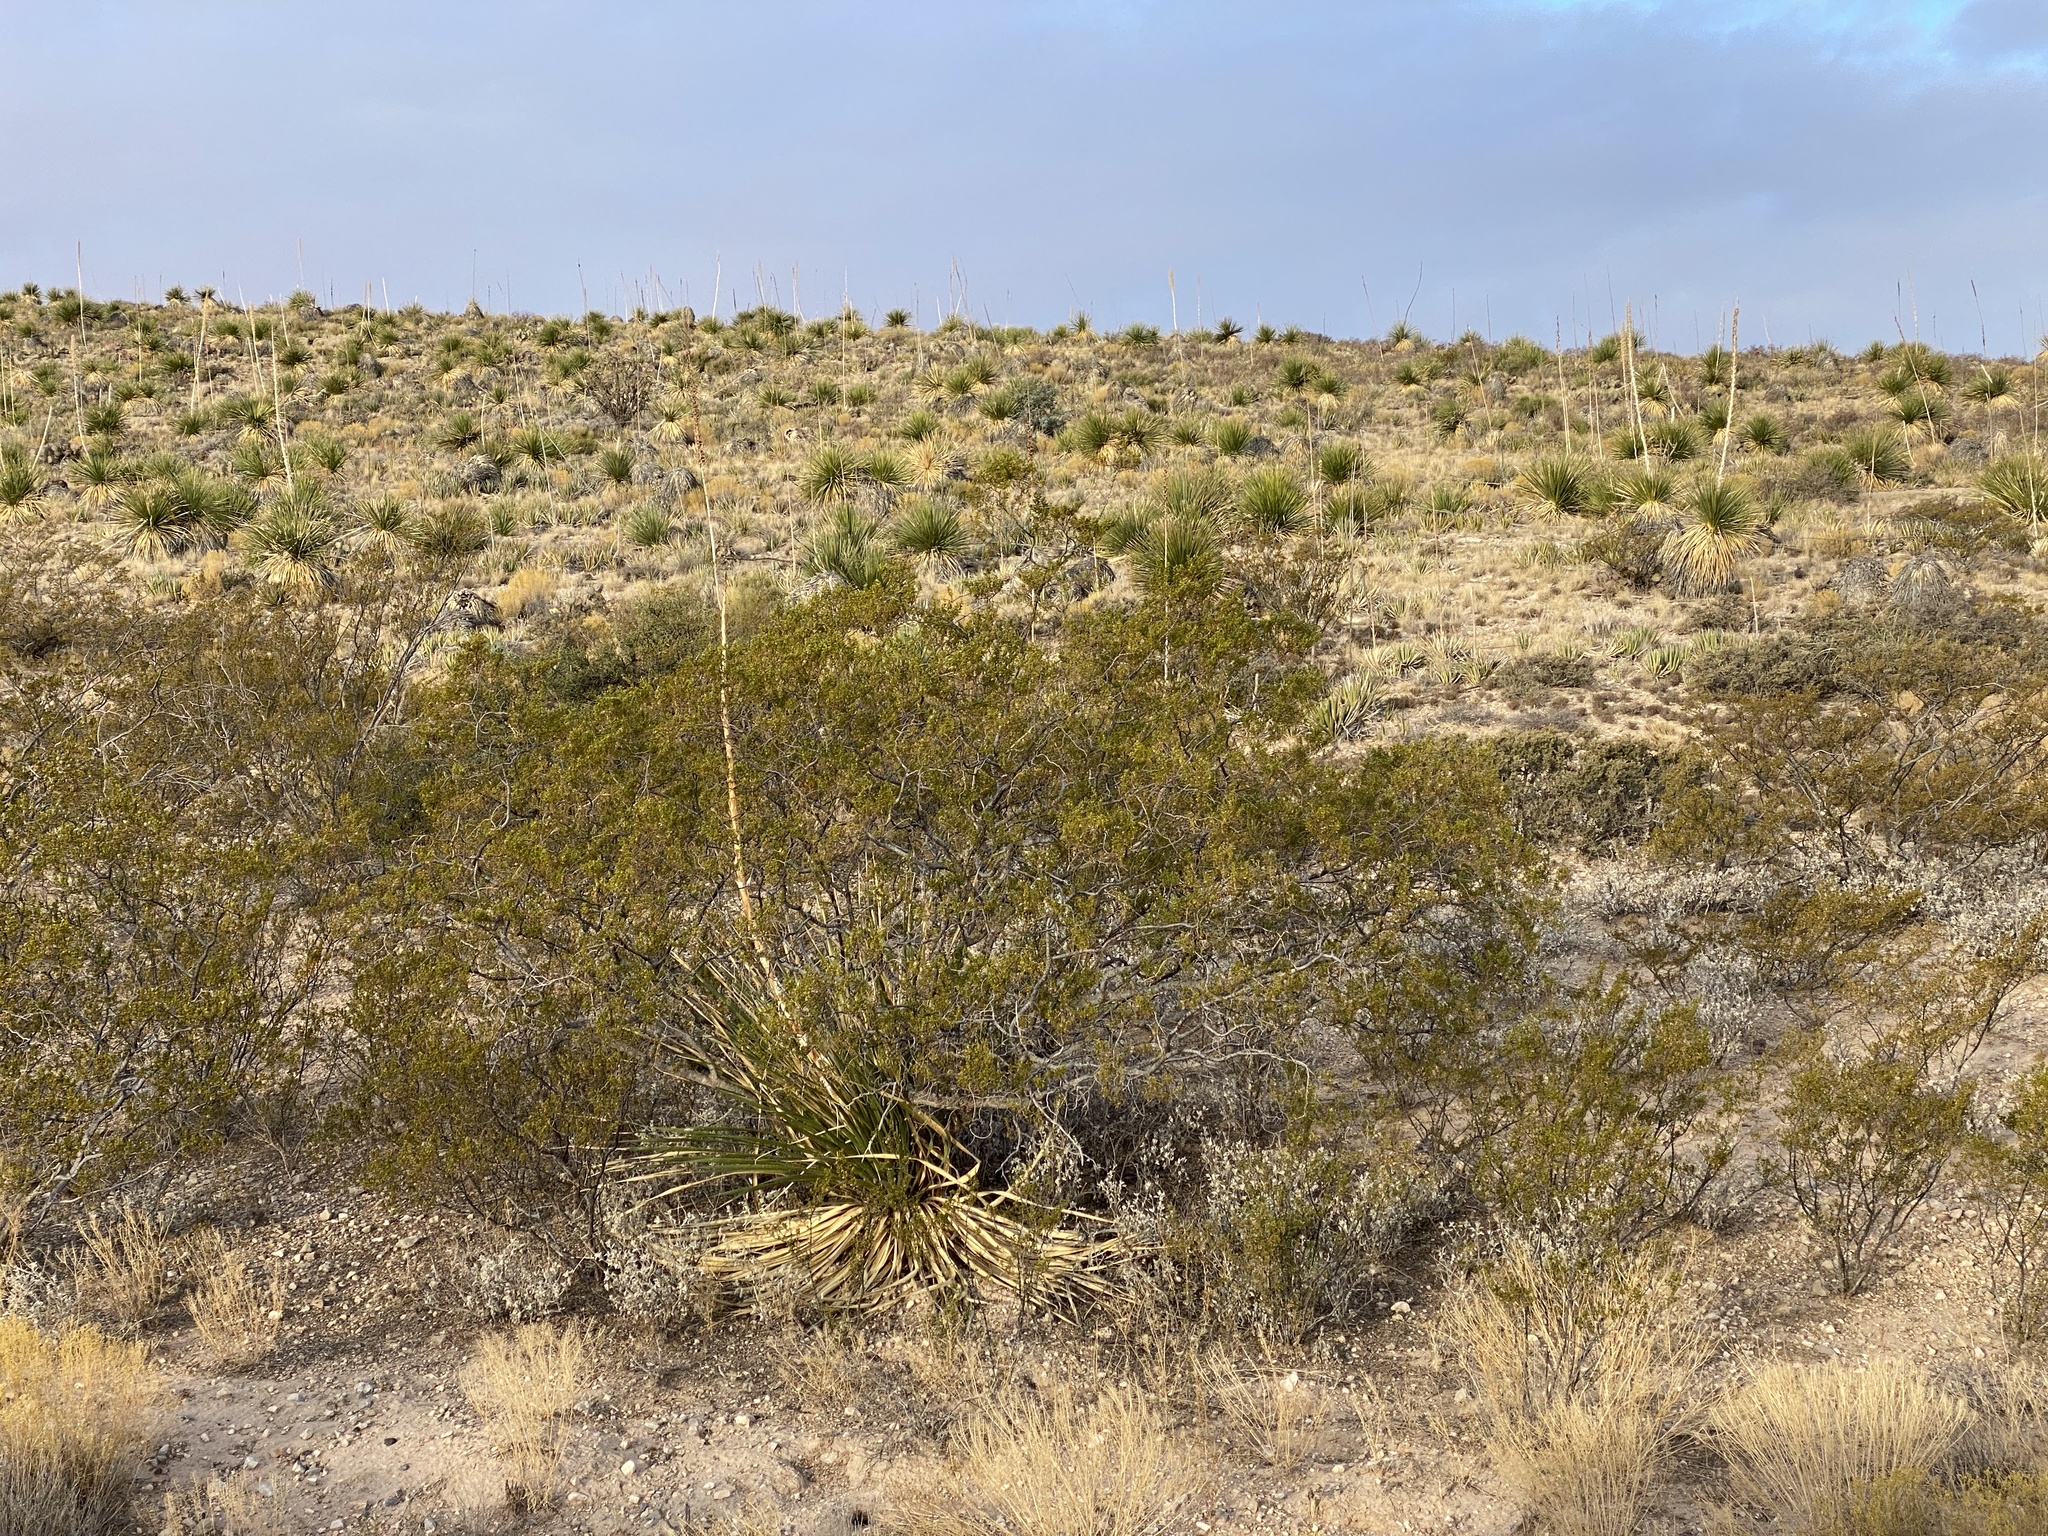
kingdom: Plantae
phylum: Tracheophyta
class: Magnoliopsida
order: Zygophyllales
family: Zygophyllaceae
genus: Larrea
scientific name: Larrea tridentata
